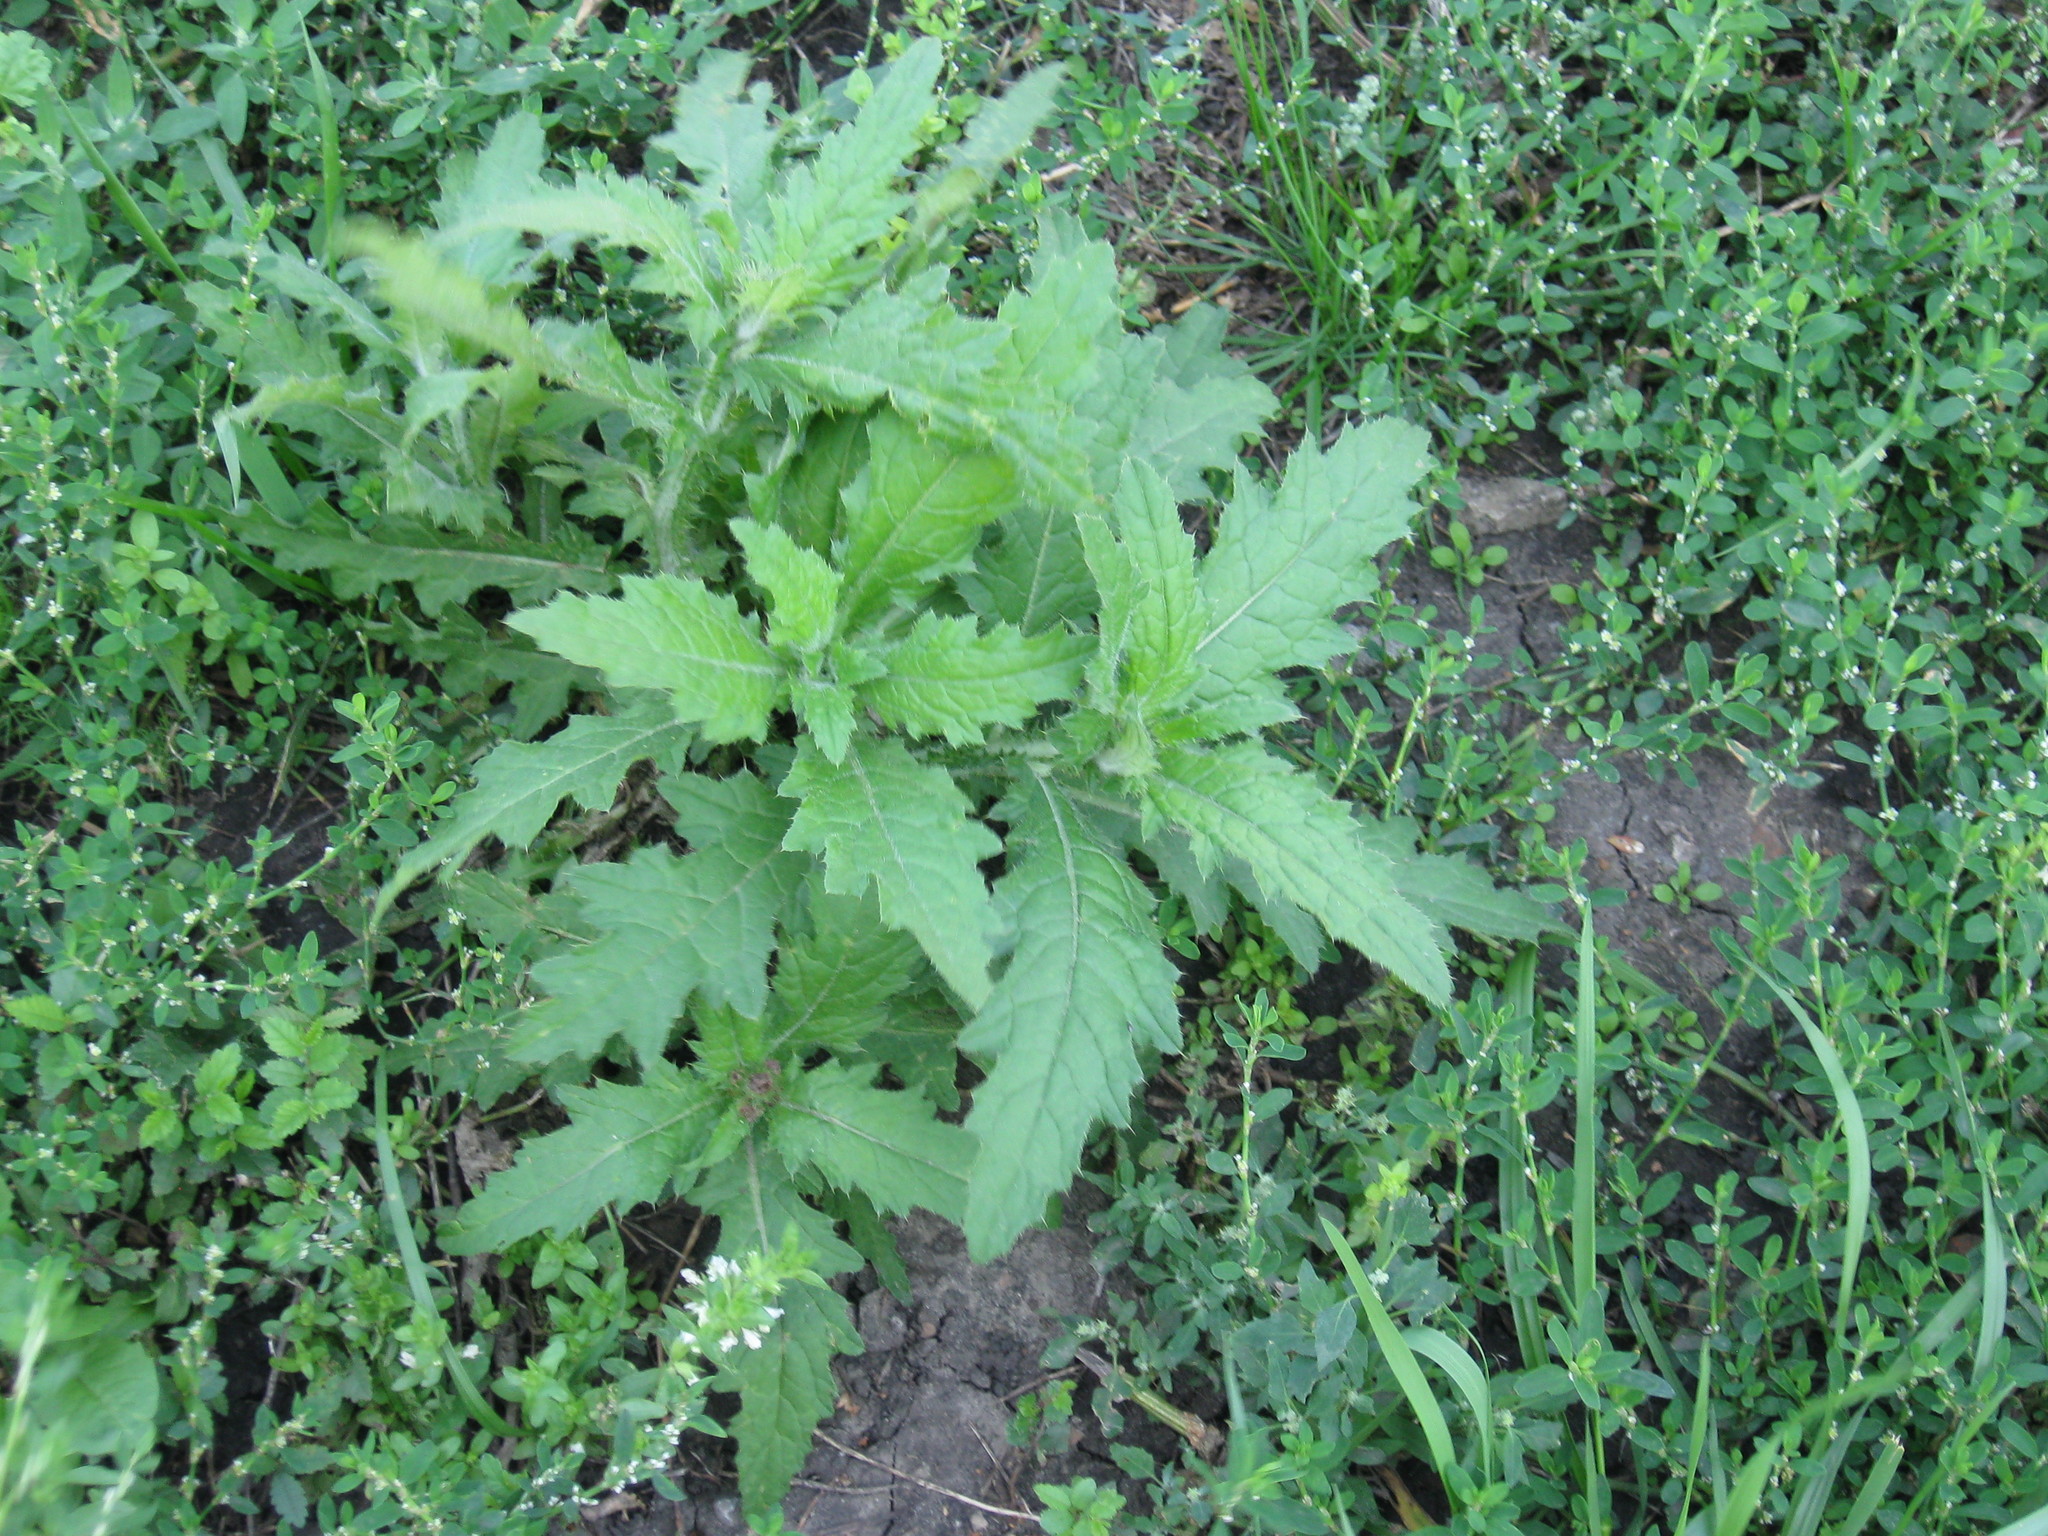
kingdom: Plantae
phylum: Tracheophyta
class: Magnoliopsida
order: Asterales
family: Asteraceae
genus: Carduus
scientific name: Carduus crispus
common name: Welted thistle
